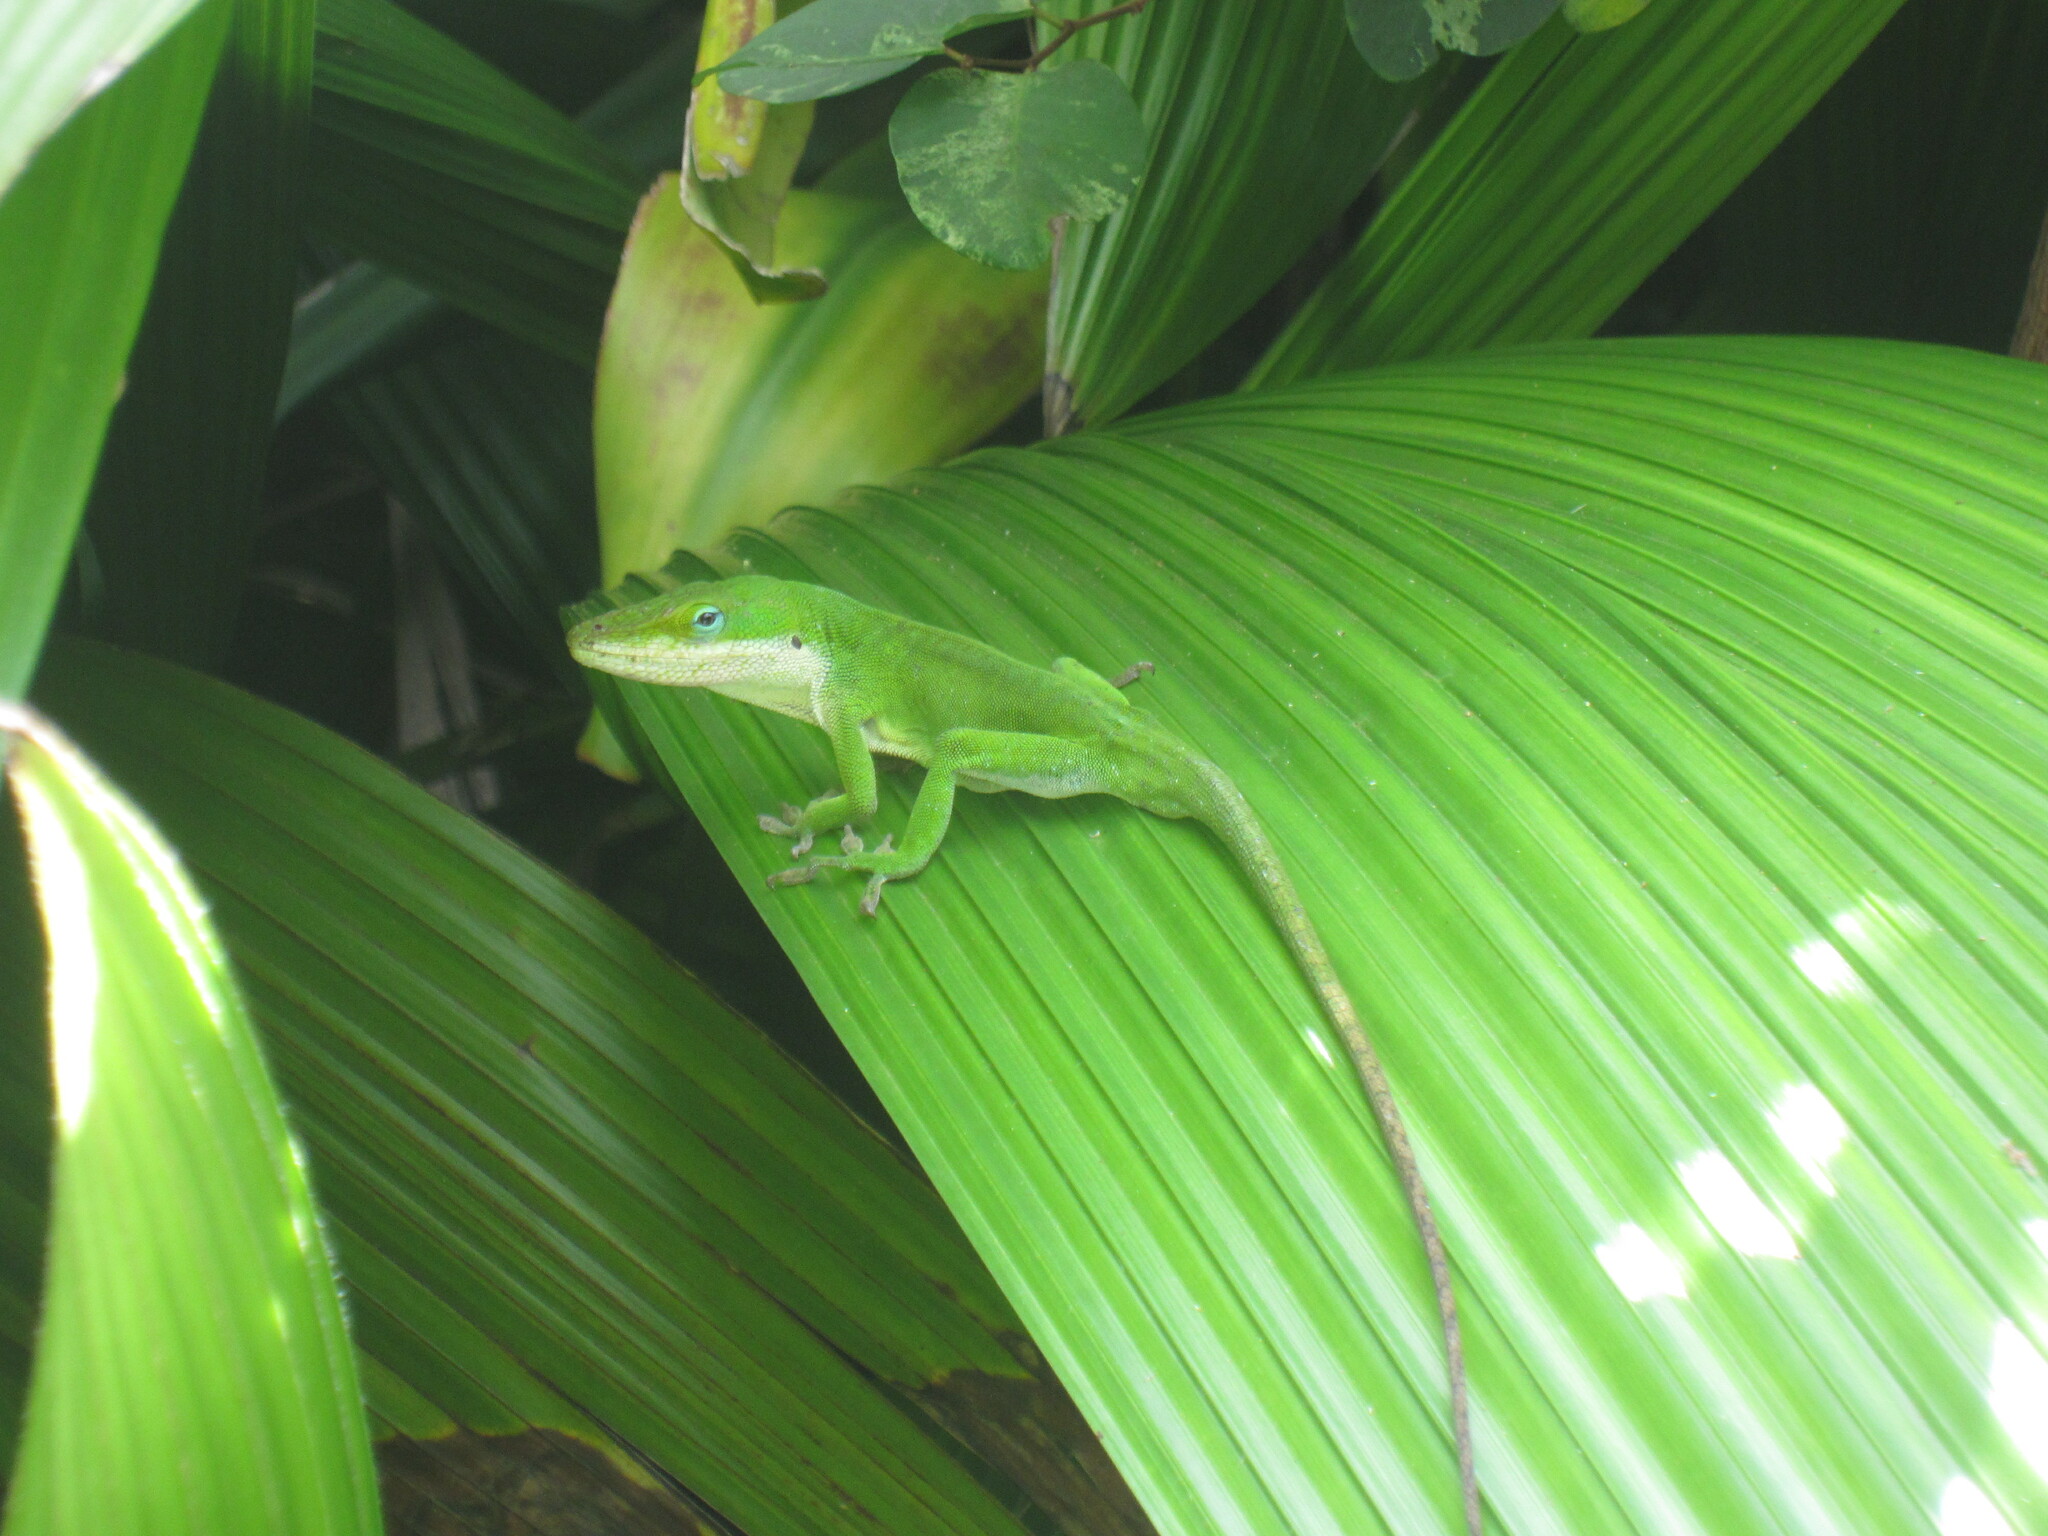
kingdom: Animalia
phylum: Chordata
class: Squamata
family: Dactyloidae
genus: Anolis
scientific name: Anolis carolinensis
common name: Green anole
